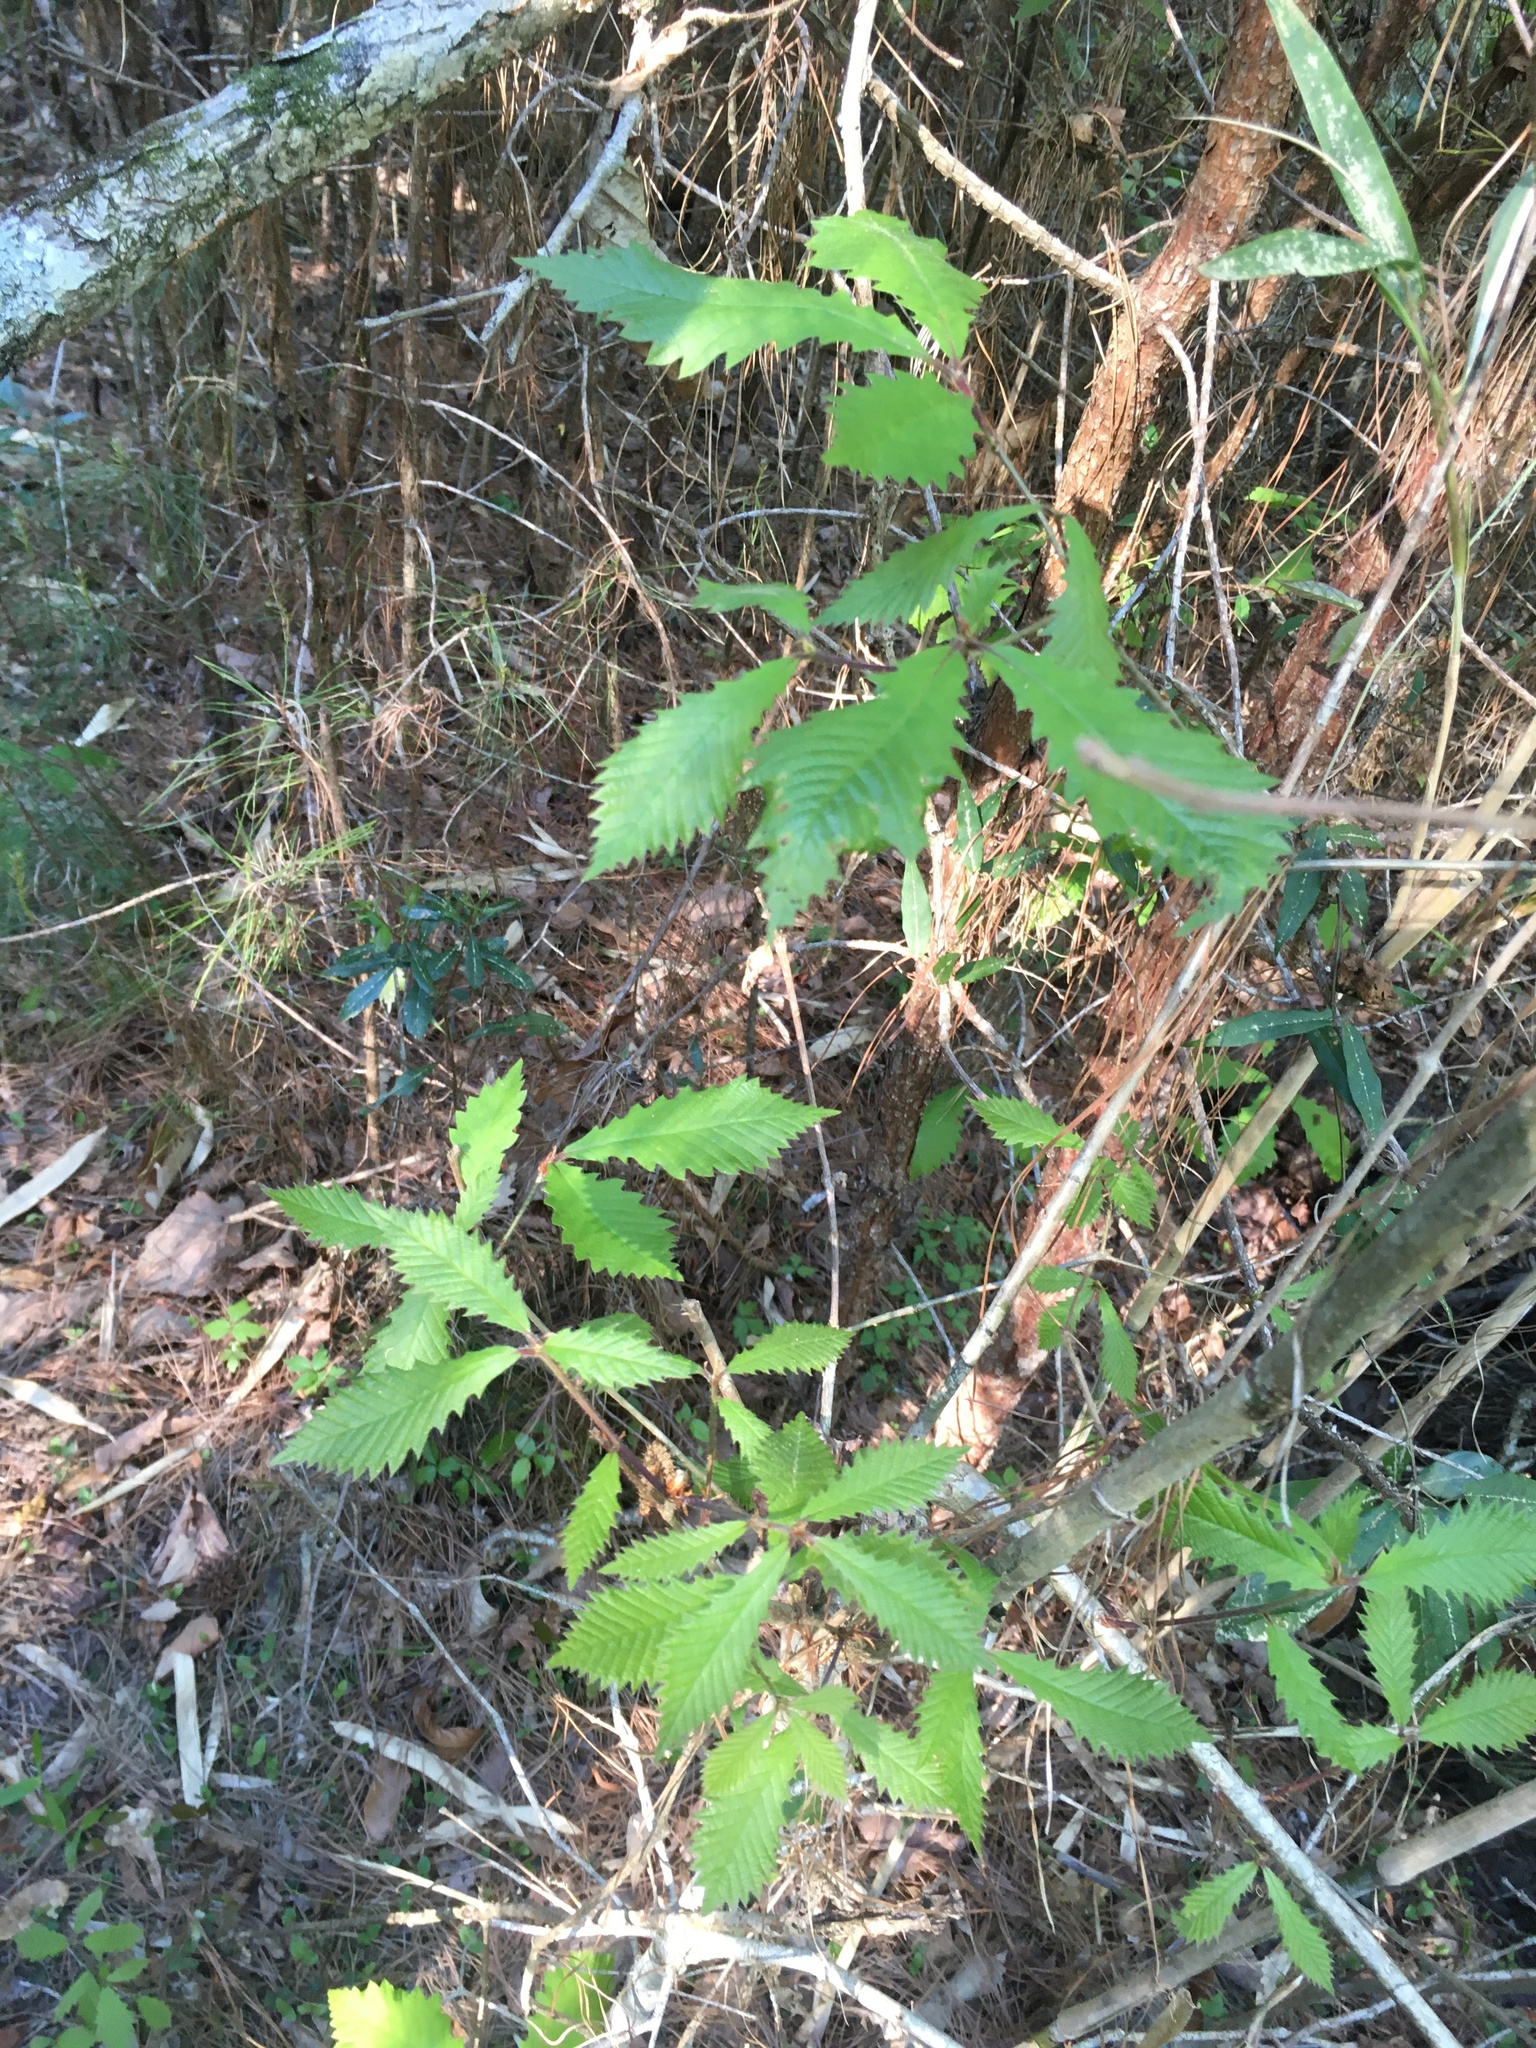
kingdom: Plantae
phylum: Tracheophyta
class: Magnoliopsida
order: Fagales
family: Fagaceae
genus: Quercus
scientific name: Quercus michauxii
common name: Swamp chestnut oak
